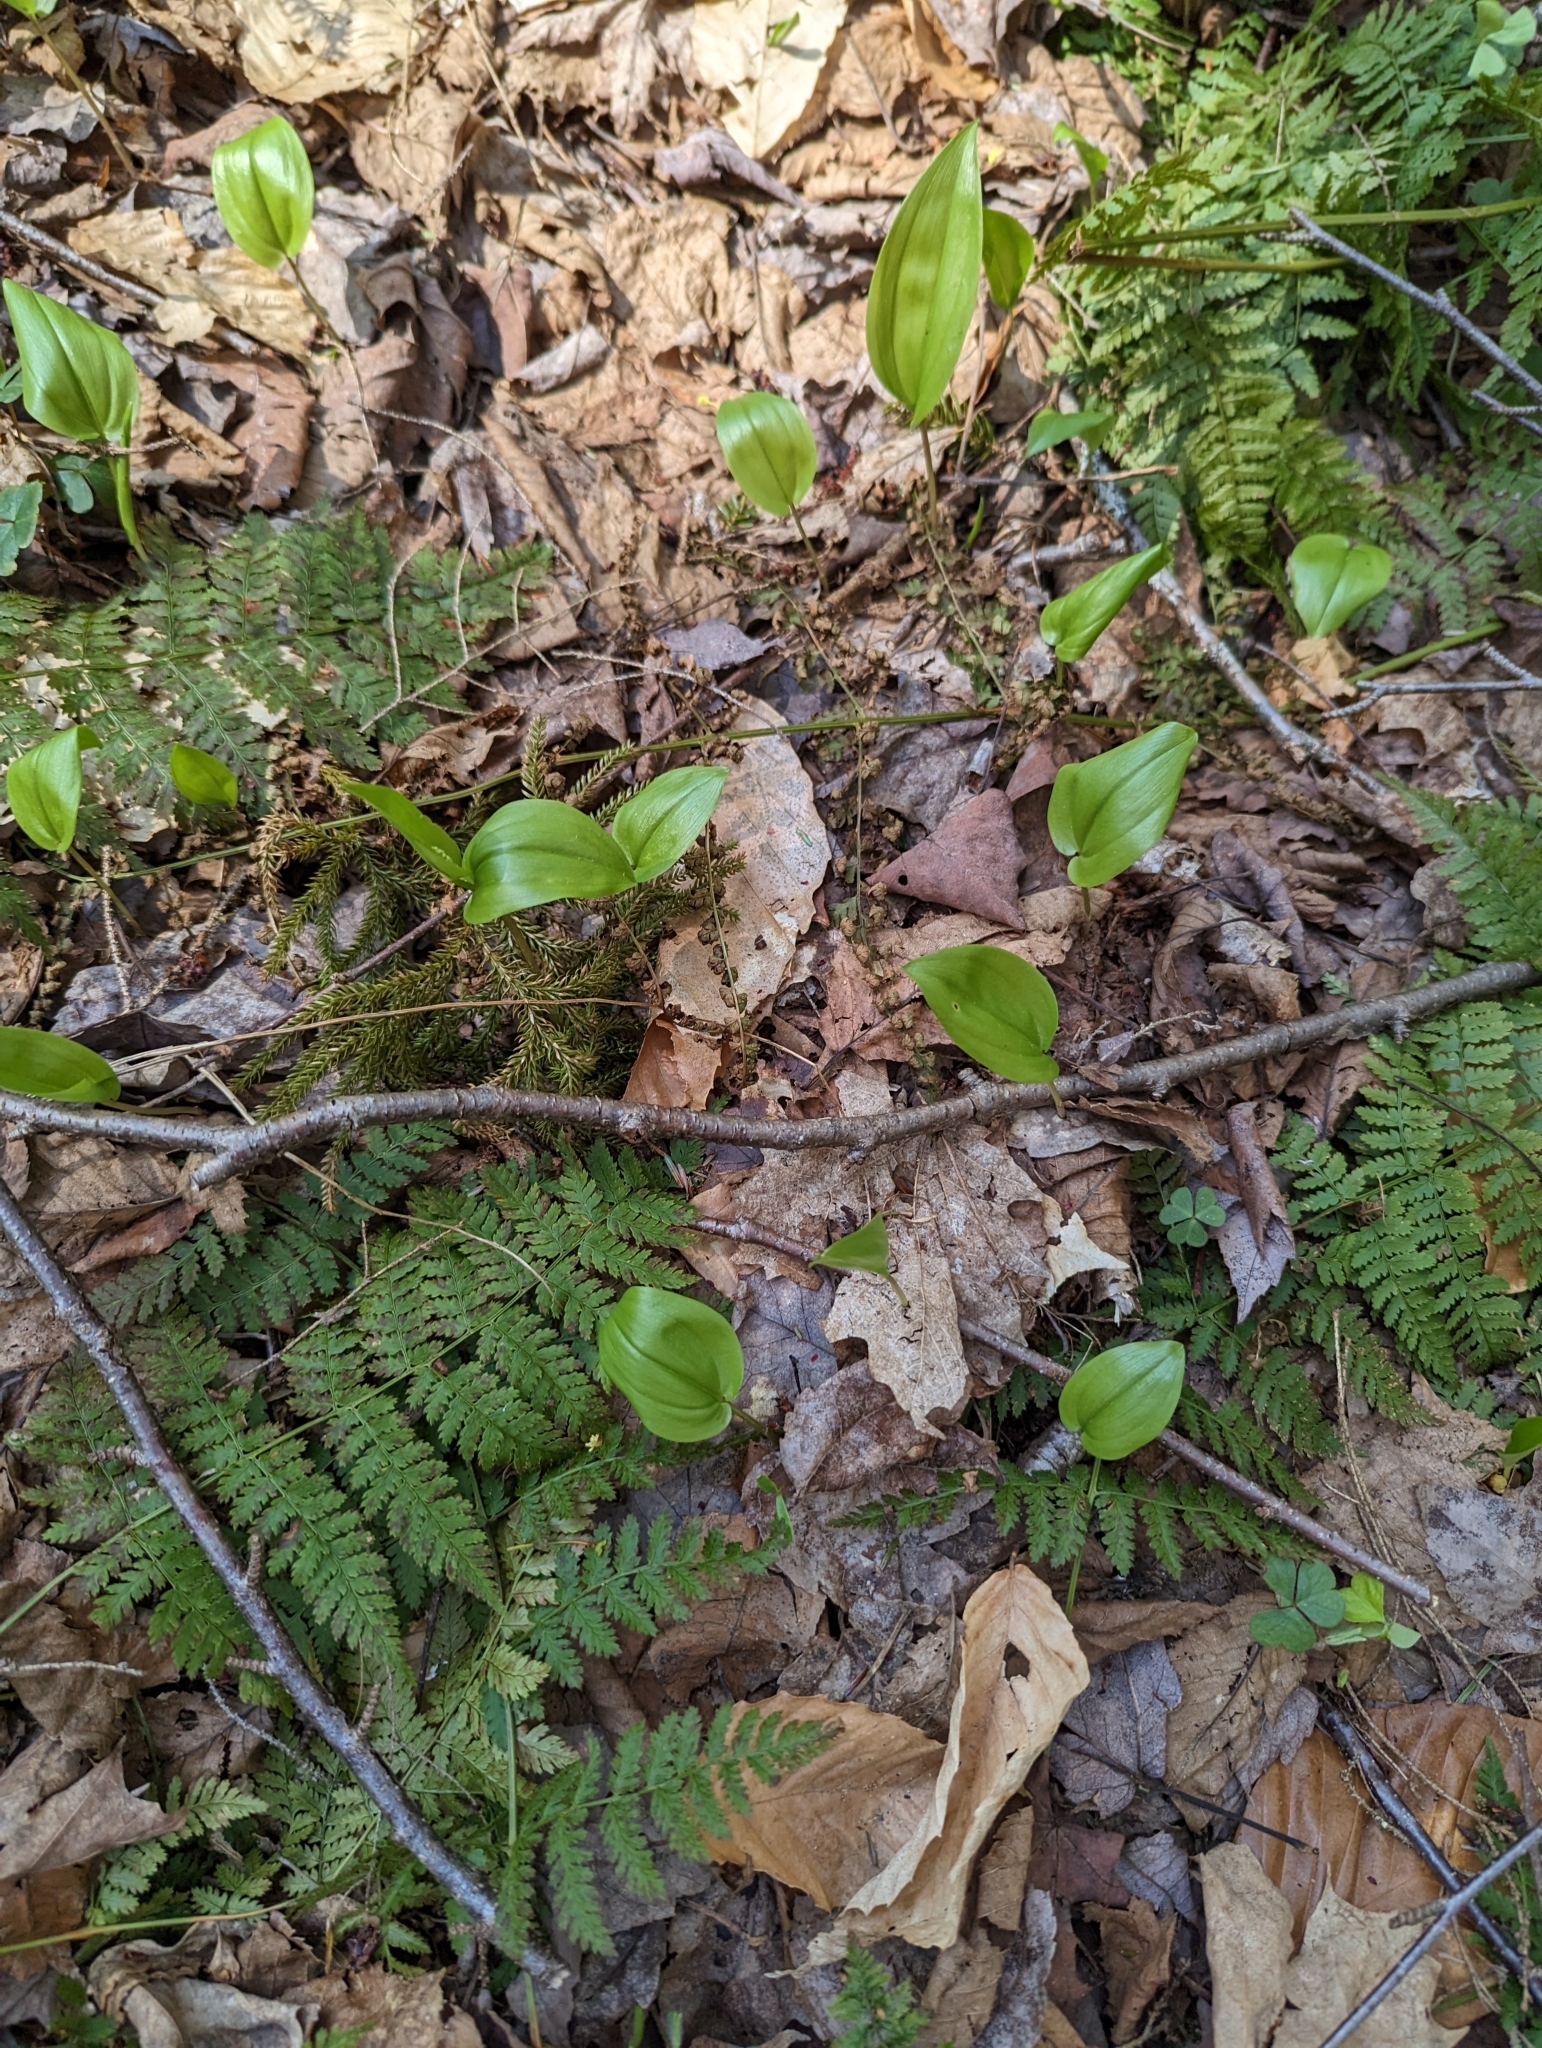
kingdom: Plantae
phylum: Tracheophyta
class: Liliopsida
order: Asparagales
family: Asparagaceae
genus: Maianthemum
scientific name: Maianthemum canadense
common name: False lily-of-the-valley
